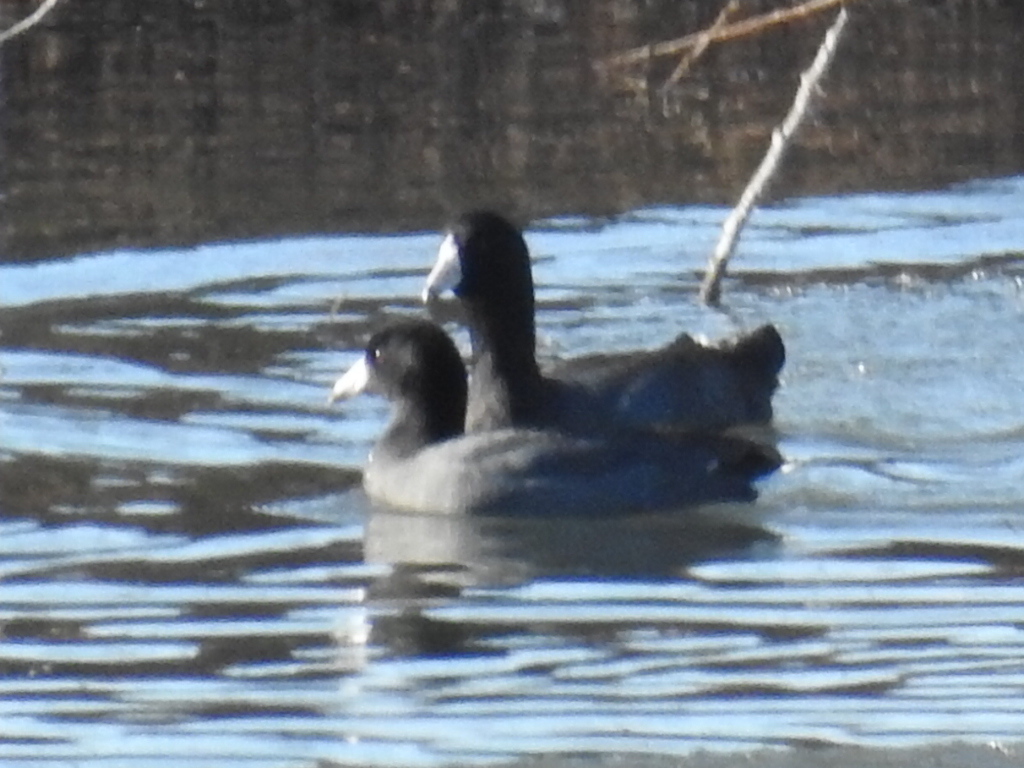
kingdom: Animalia
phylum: Chordata
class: Aves
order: Gruiformes
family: Rallidae
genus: Fulica
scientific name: Fulica americana
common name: American coot
